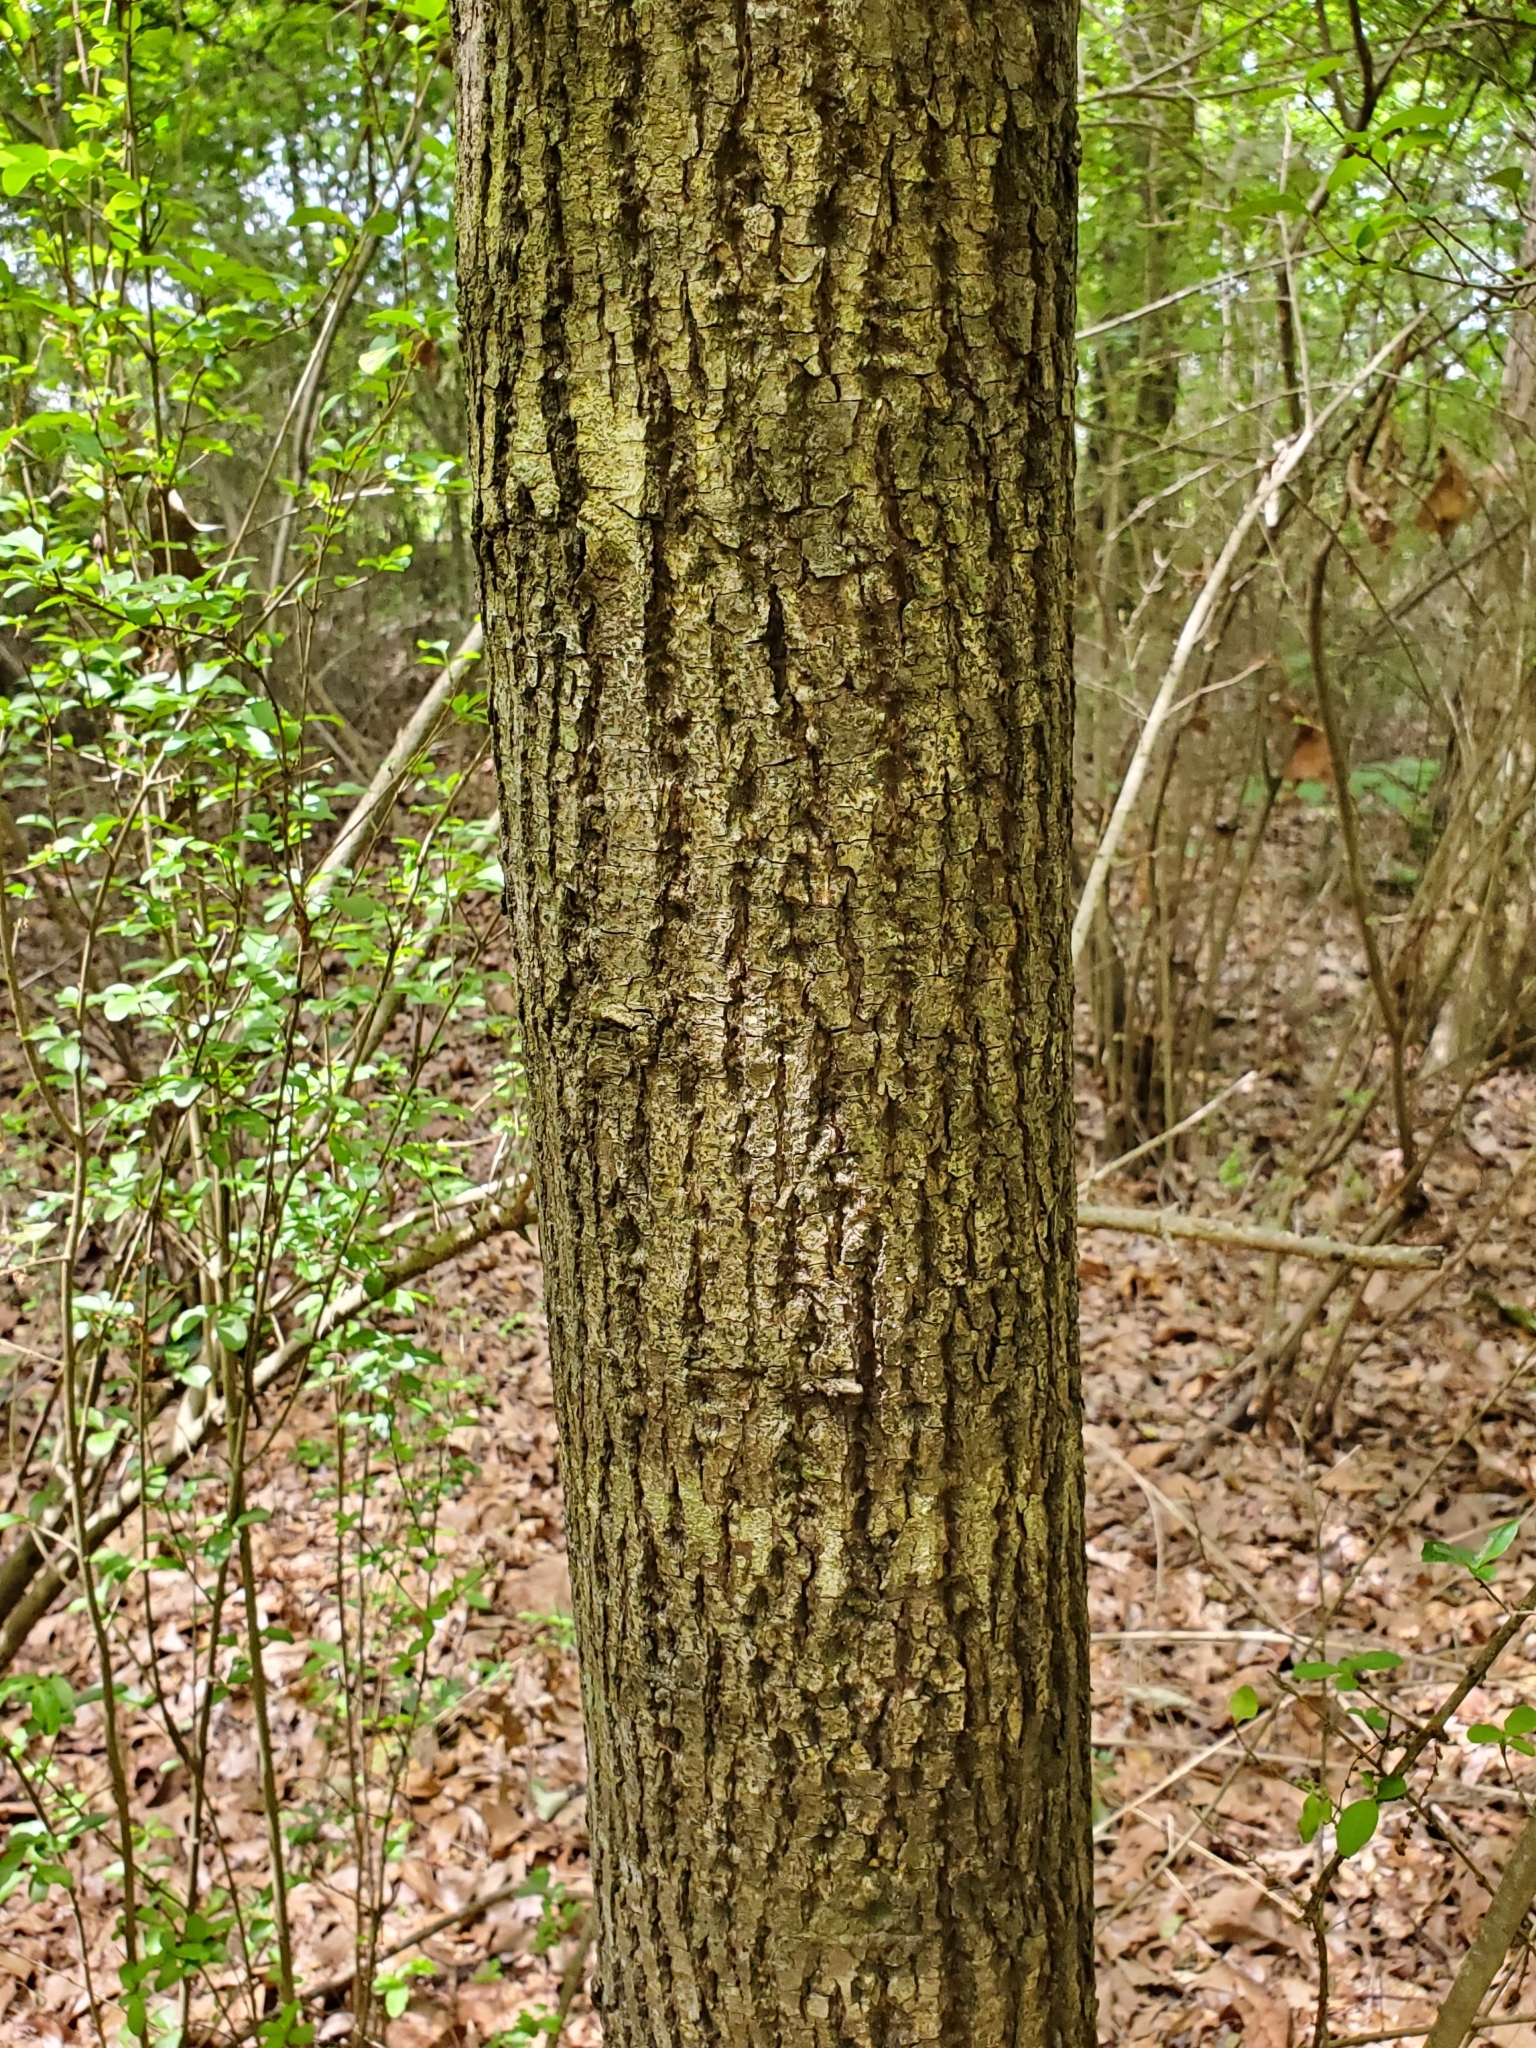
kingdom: Plantae
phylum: Tracheophyta
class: Magnoliopsida
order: Malvales
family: Malvaceae
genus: Tilia
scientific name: Tilia americana
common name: Basswood
